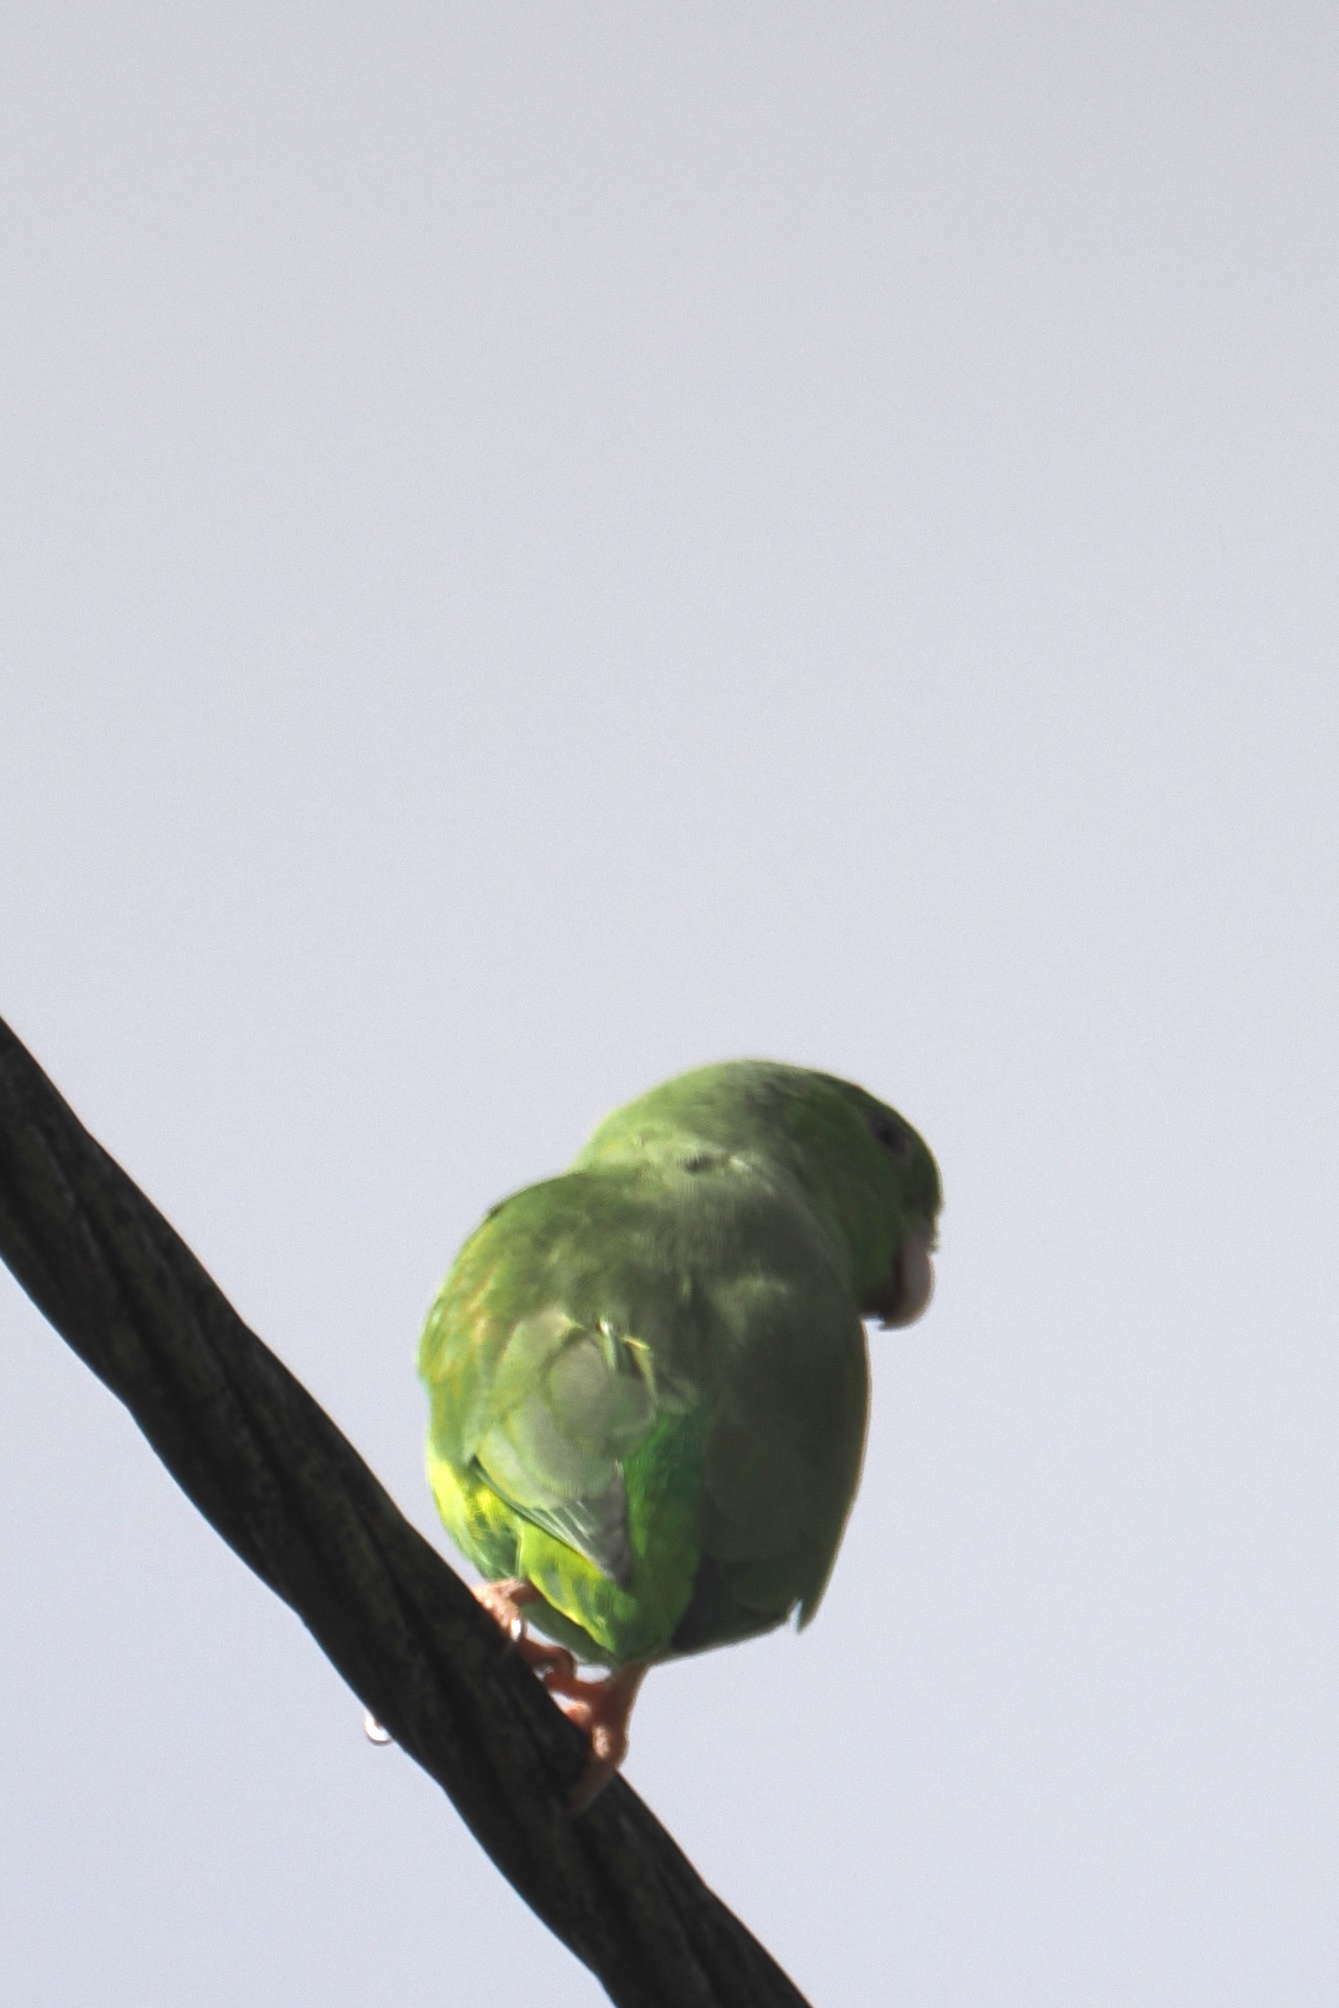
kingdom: Animalia
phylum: Chordata
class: Aves
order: Psittaciformes
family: Psittacidae
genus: Forpus
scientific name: Forpus passerinus
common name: Green-rumped parrotlet
